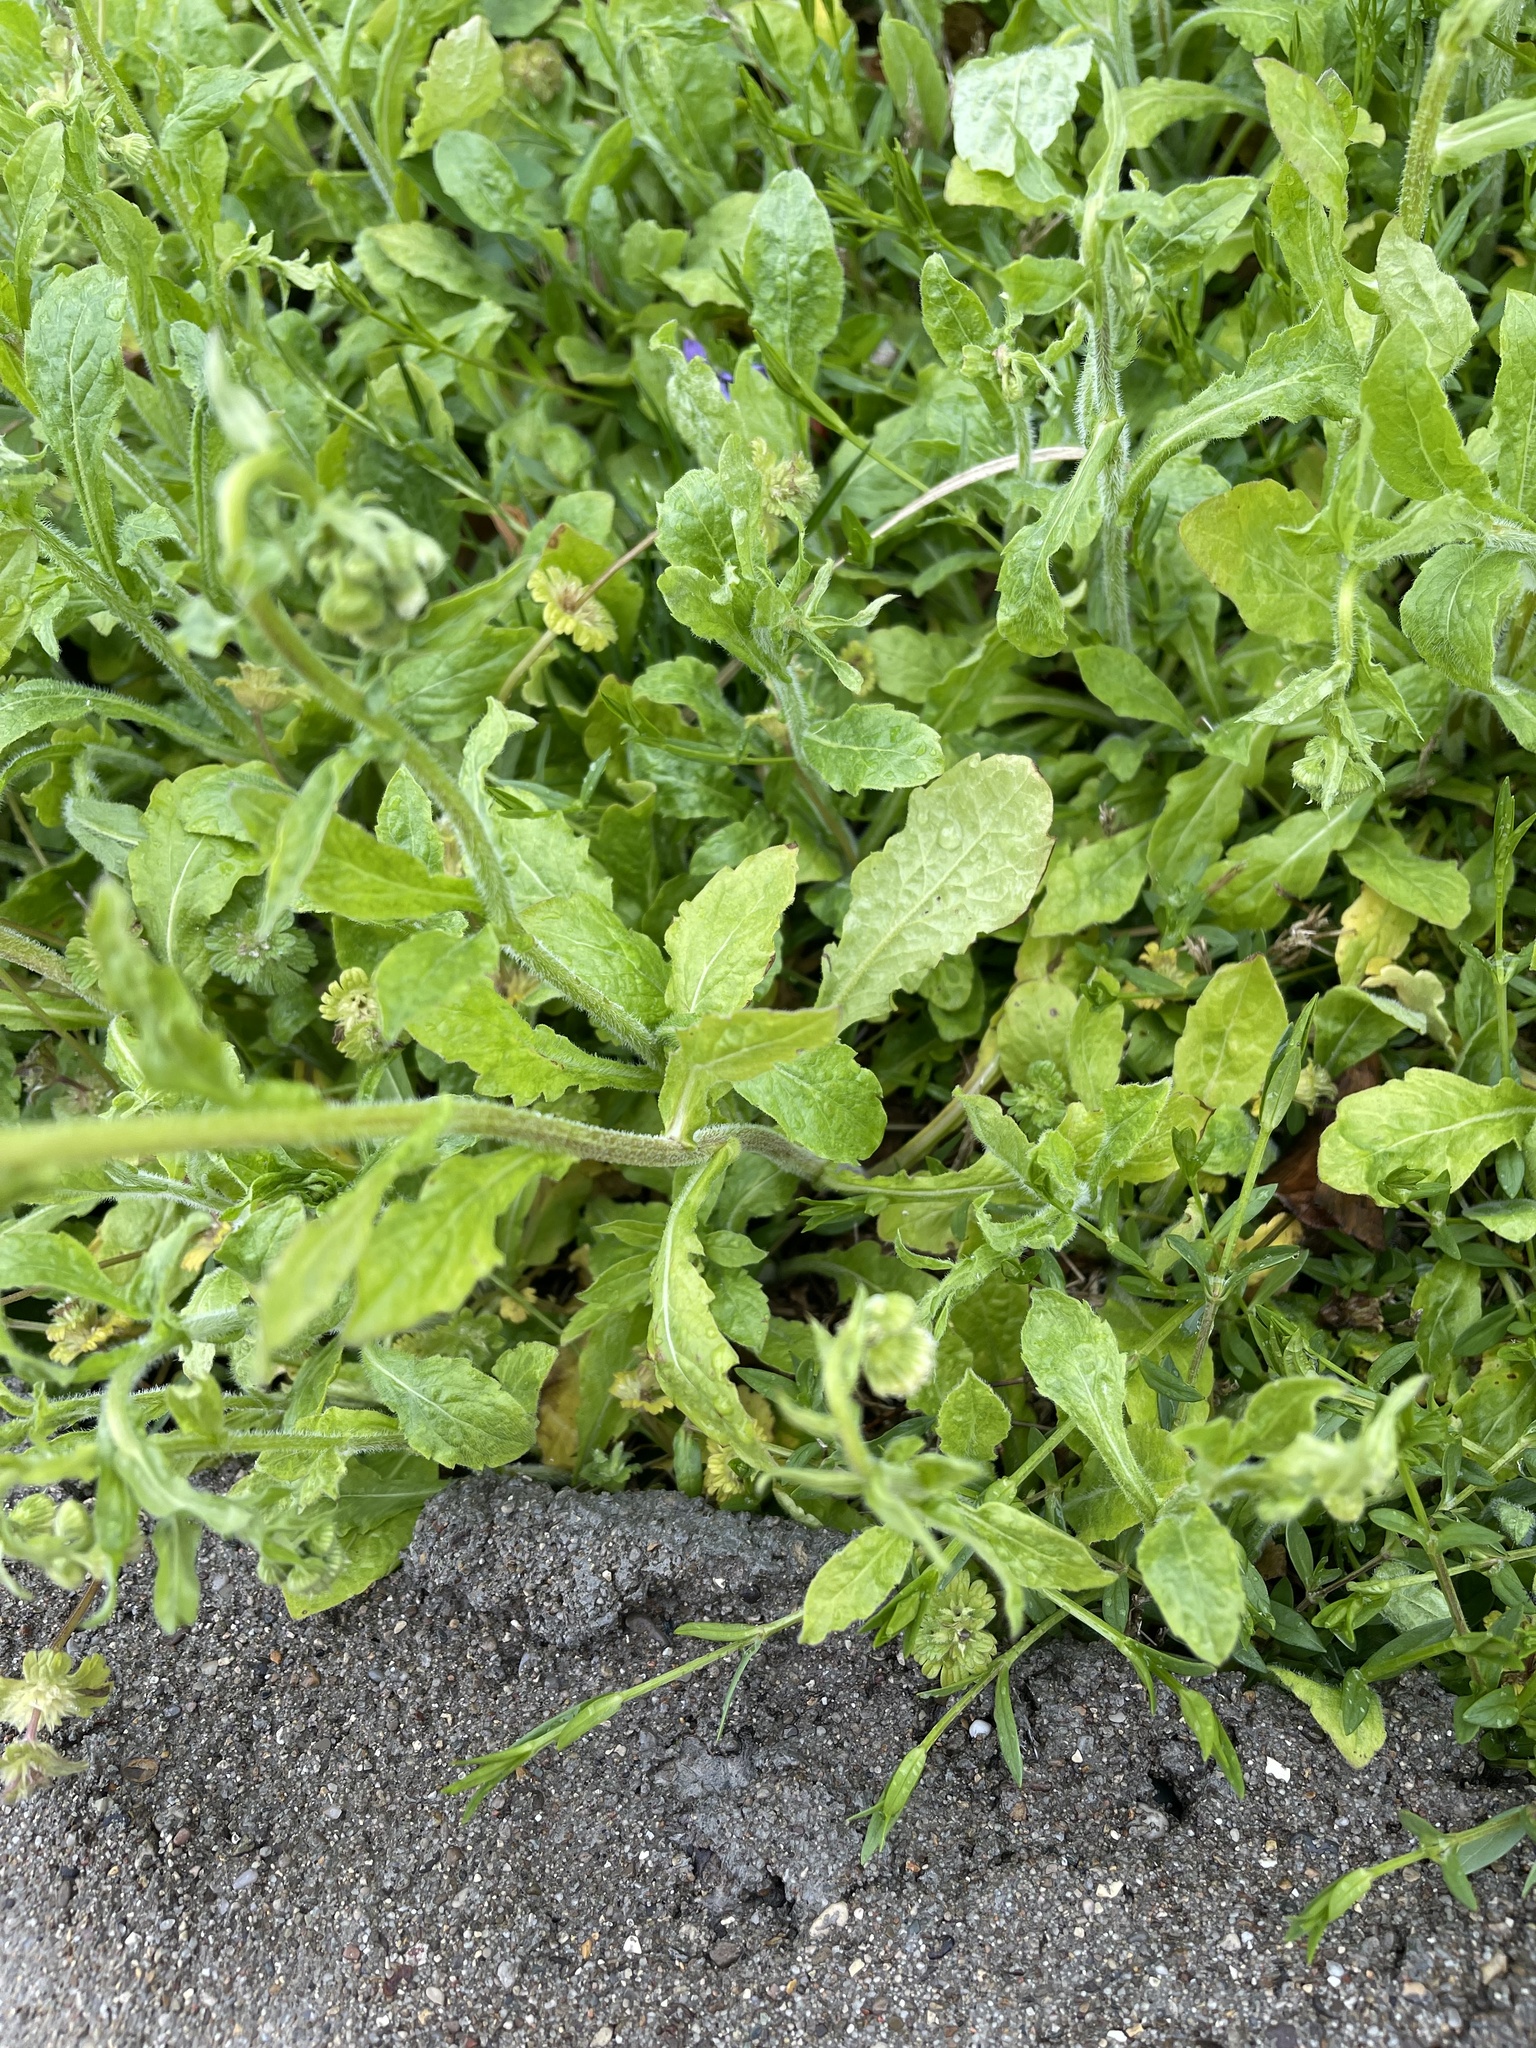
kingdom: Plantae
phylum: Tracheophyta
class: Magnoliopsida
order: Asterales
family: Asteraceae
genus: Erigeron
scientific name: Erigeron philadelphicus
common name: Robin's-plantain
